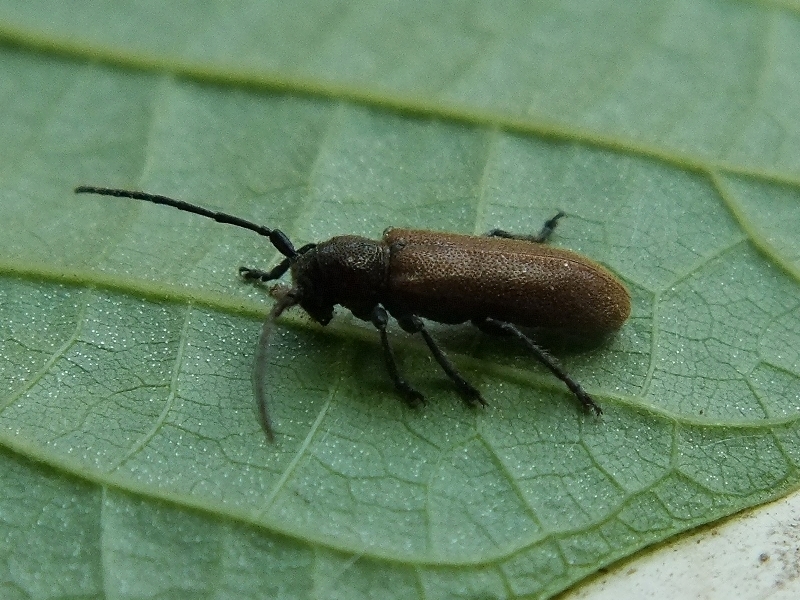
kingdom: Animalia
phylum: Arthropoda
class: Insecta
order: Coleoptera
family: Cerambycidae
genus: Anaesthetis
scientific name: Anaesthetis testacea
